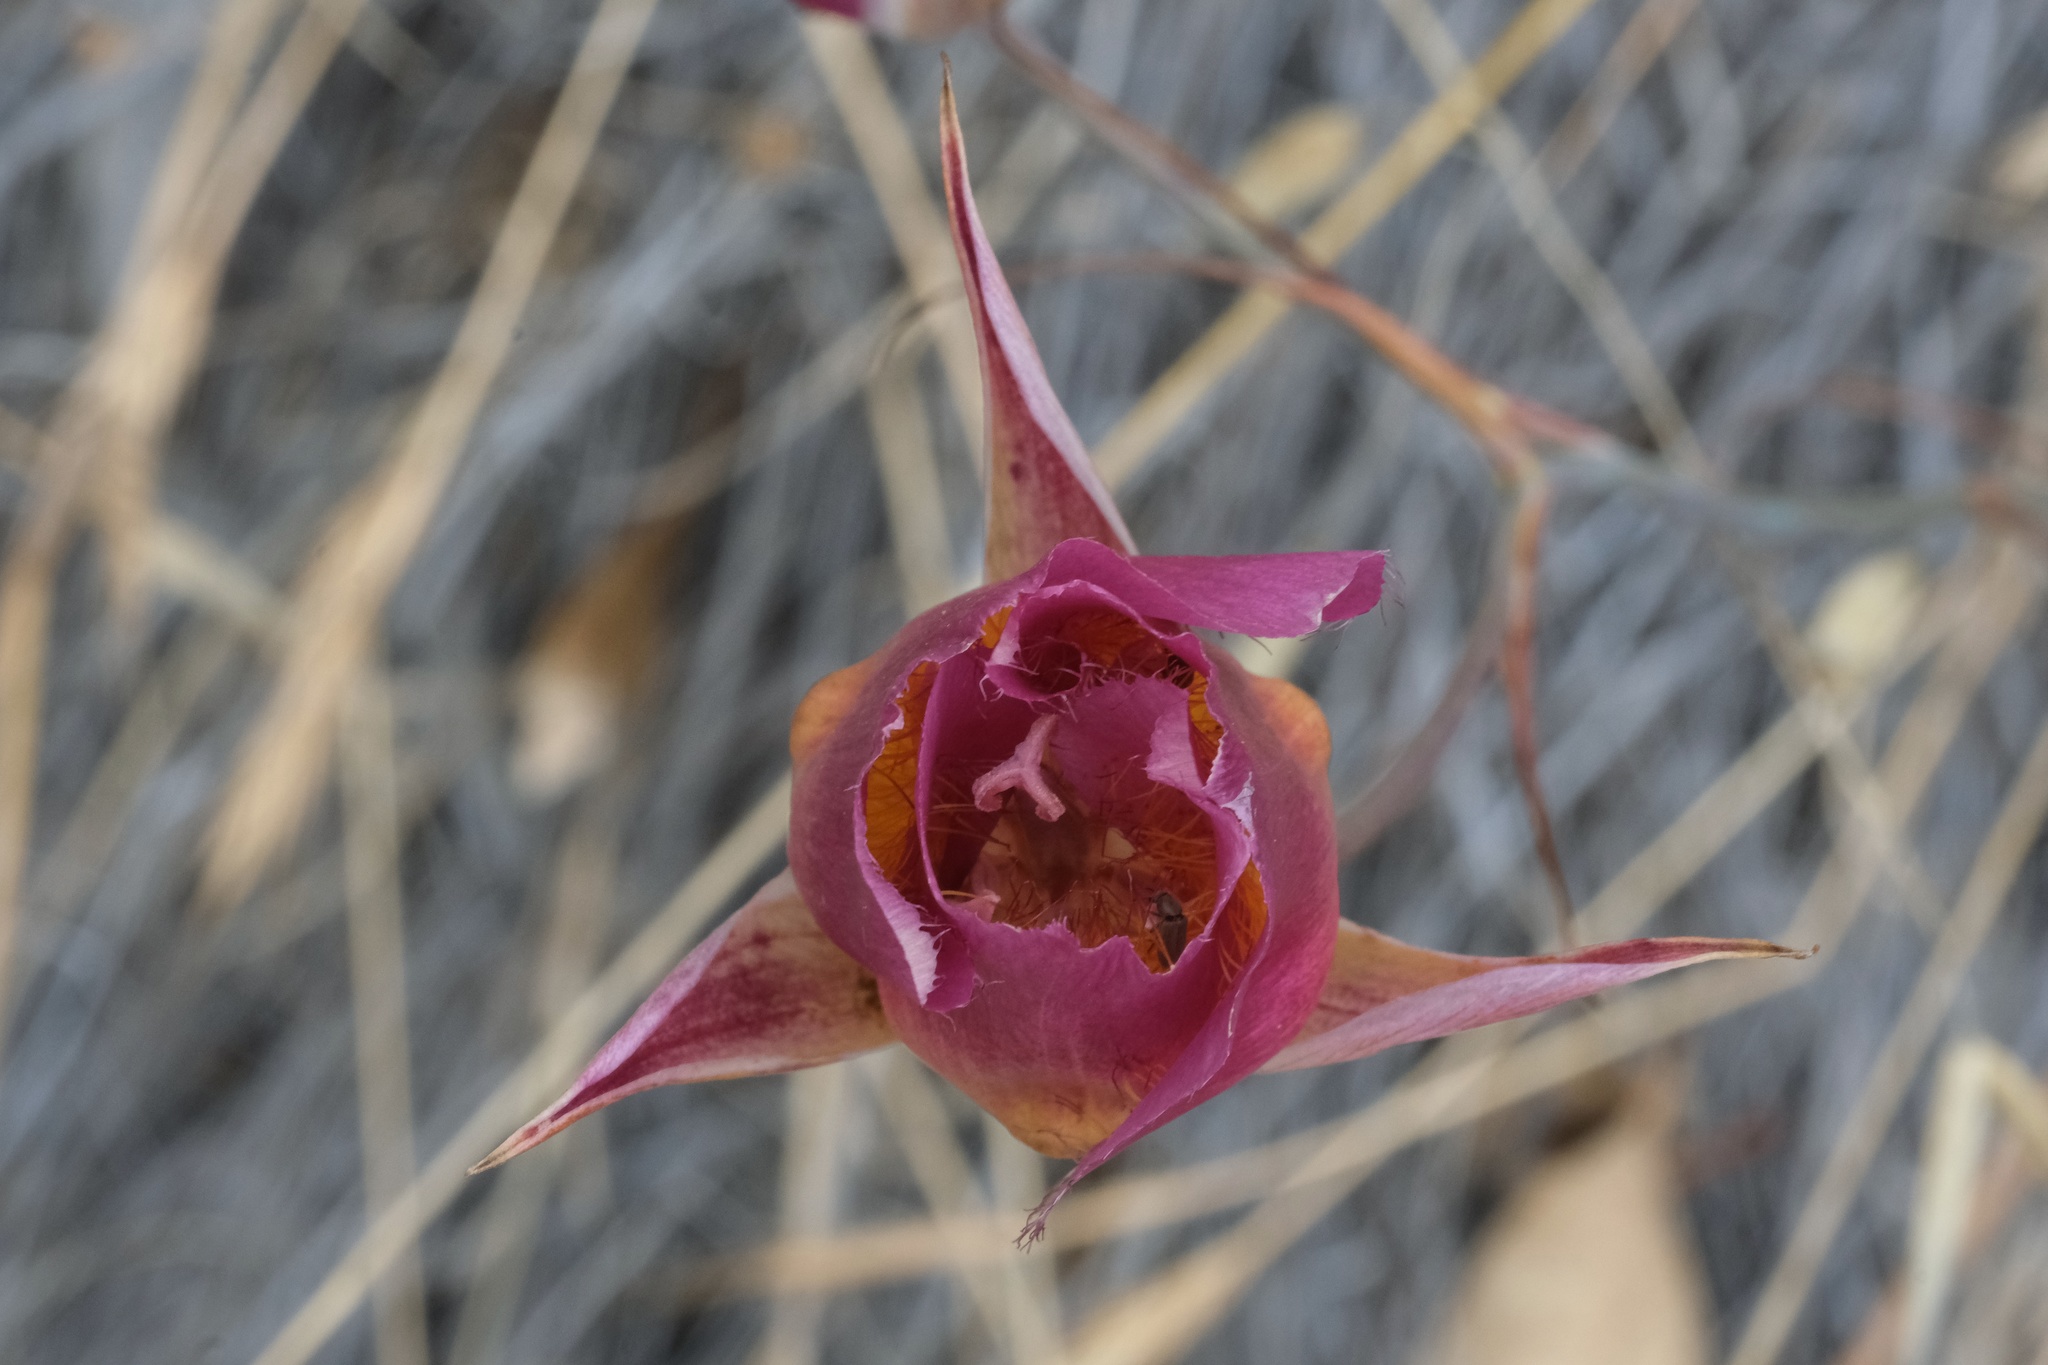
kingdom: Plantae
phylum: Tracheophyta
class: Liliopsida
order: Liliales
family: Liliaceae
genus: Calochortus
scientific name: Calochortus plummerae
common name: Plummer's mariposa-lily
